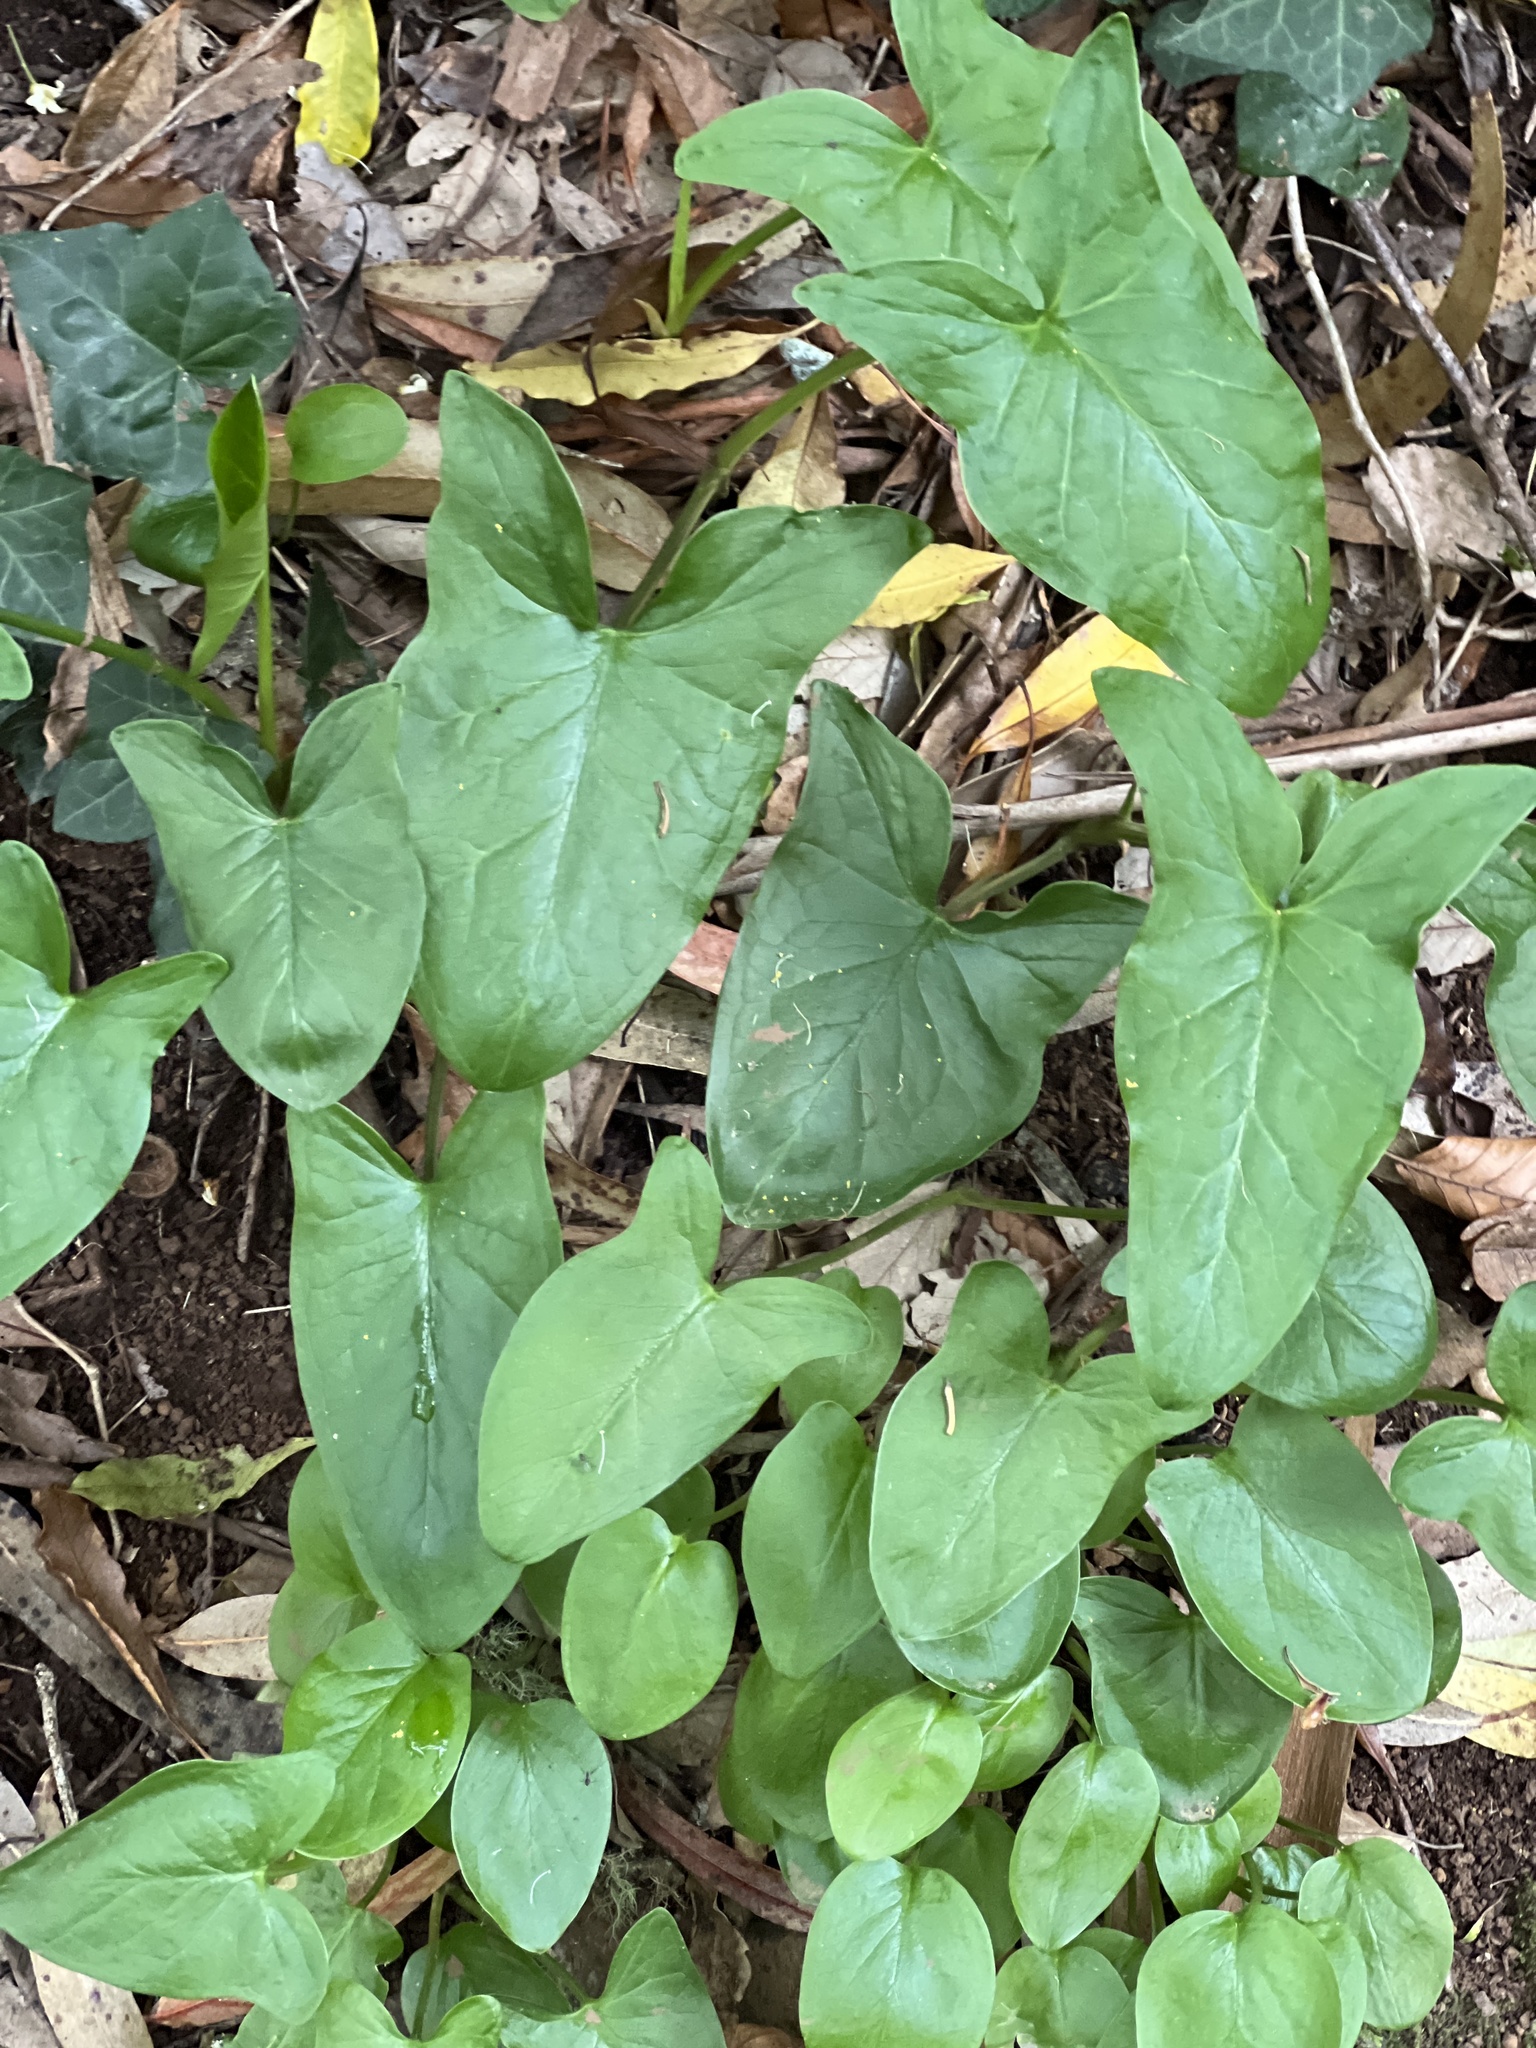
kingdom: Plantae
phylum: Tracheophyta
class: Liliopsida
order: Alismatales
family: Araceae
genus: Arum
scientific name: Arum italicum
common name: Italian lords-and-ladies
